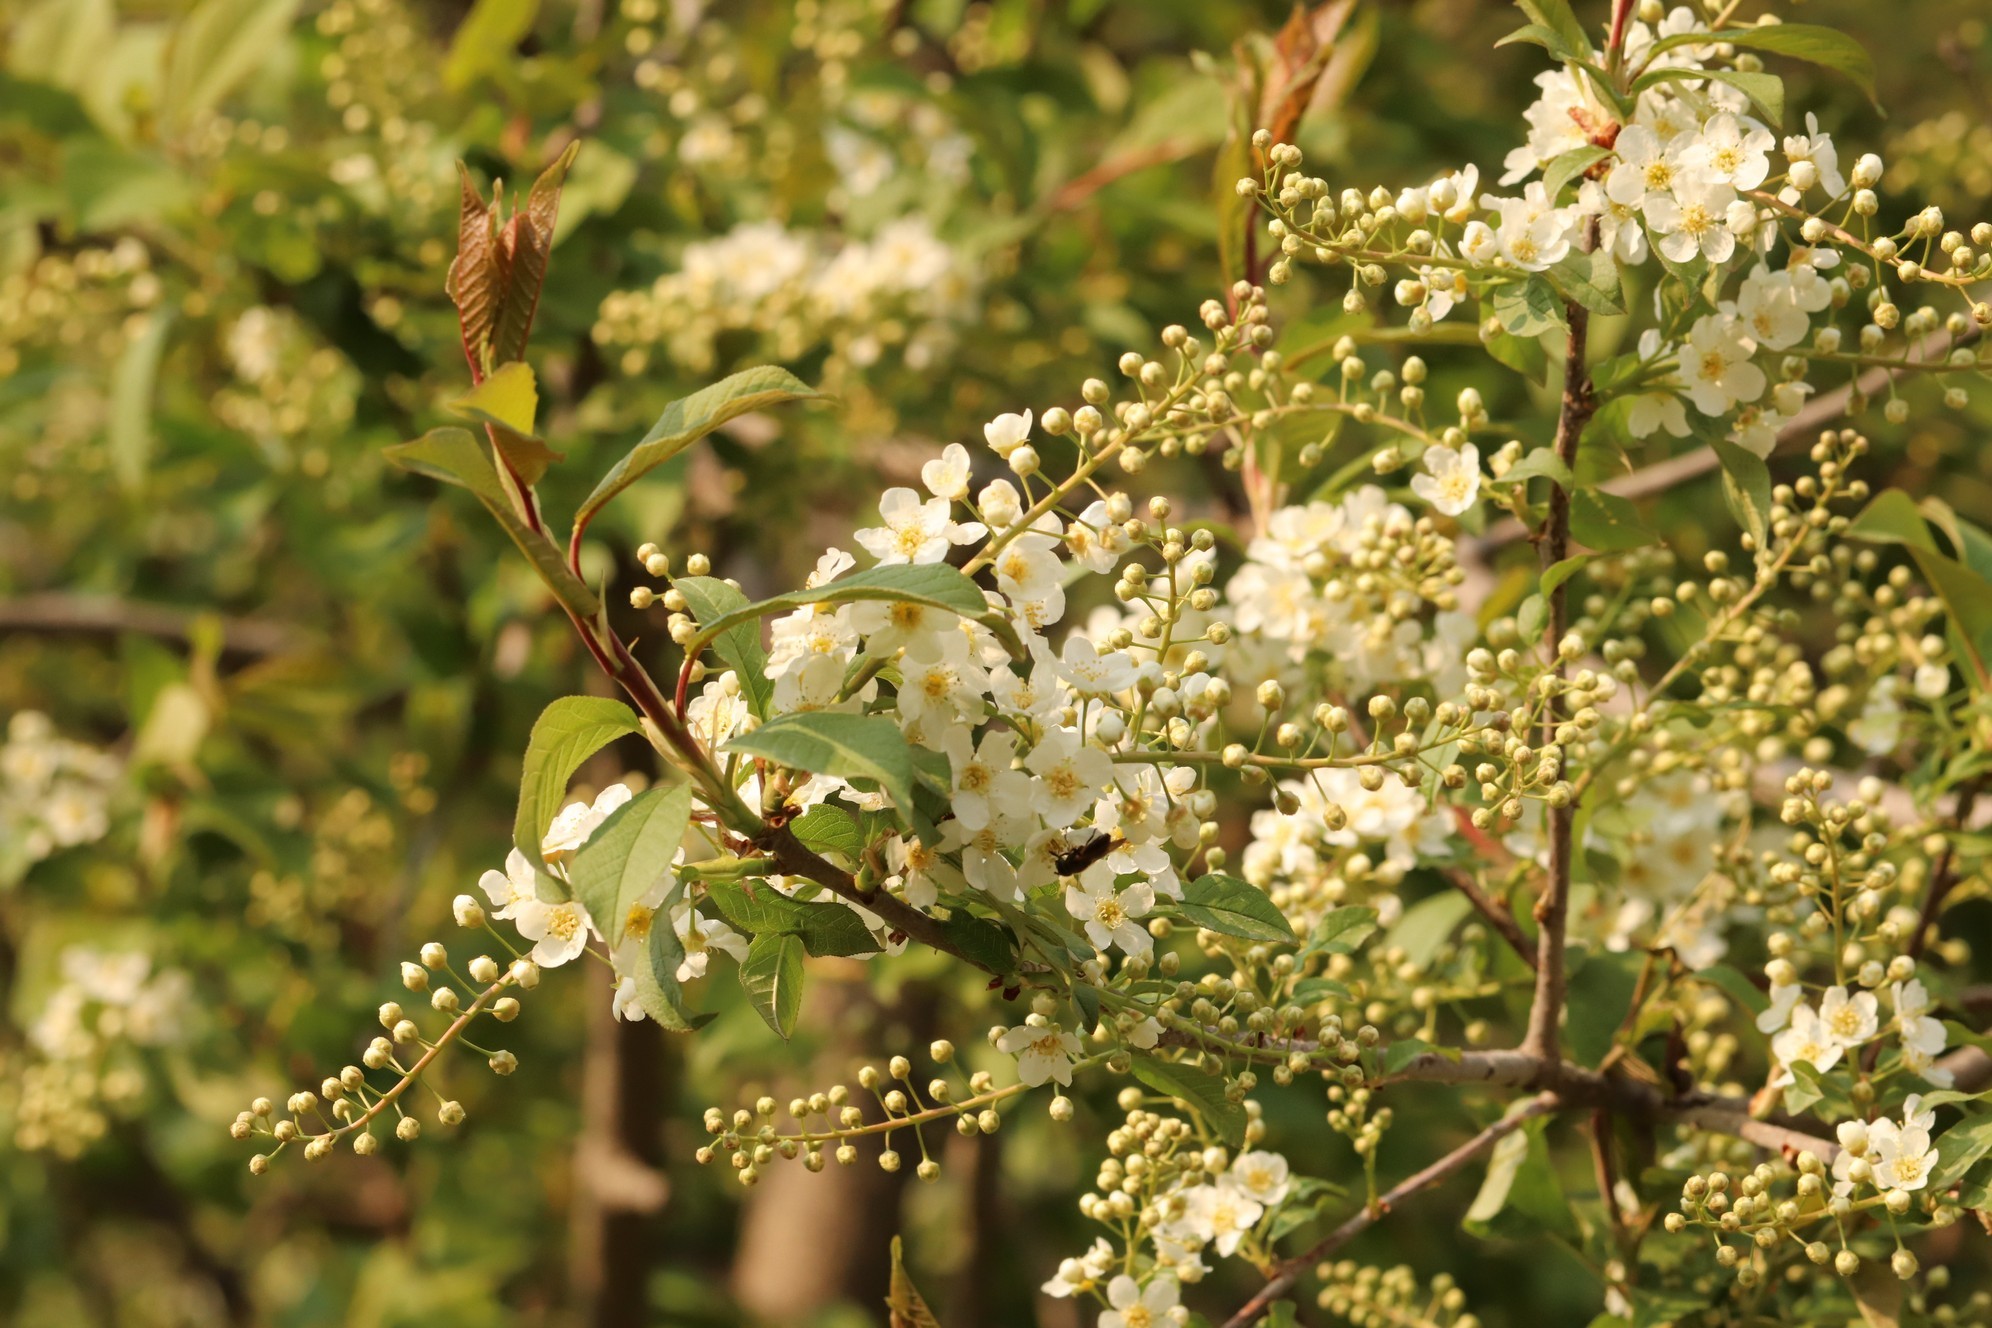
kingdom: Plantae
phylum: Tracheophyta
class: Magnoliopsida
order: Rosales
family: Rosaceae
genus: Prunus
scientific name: Prunus padus
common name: Bird cherry
